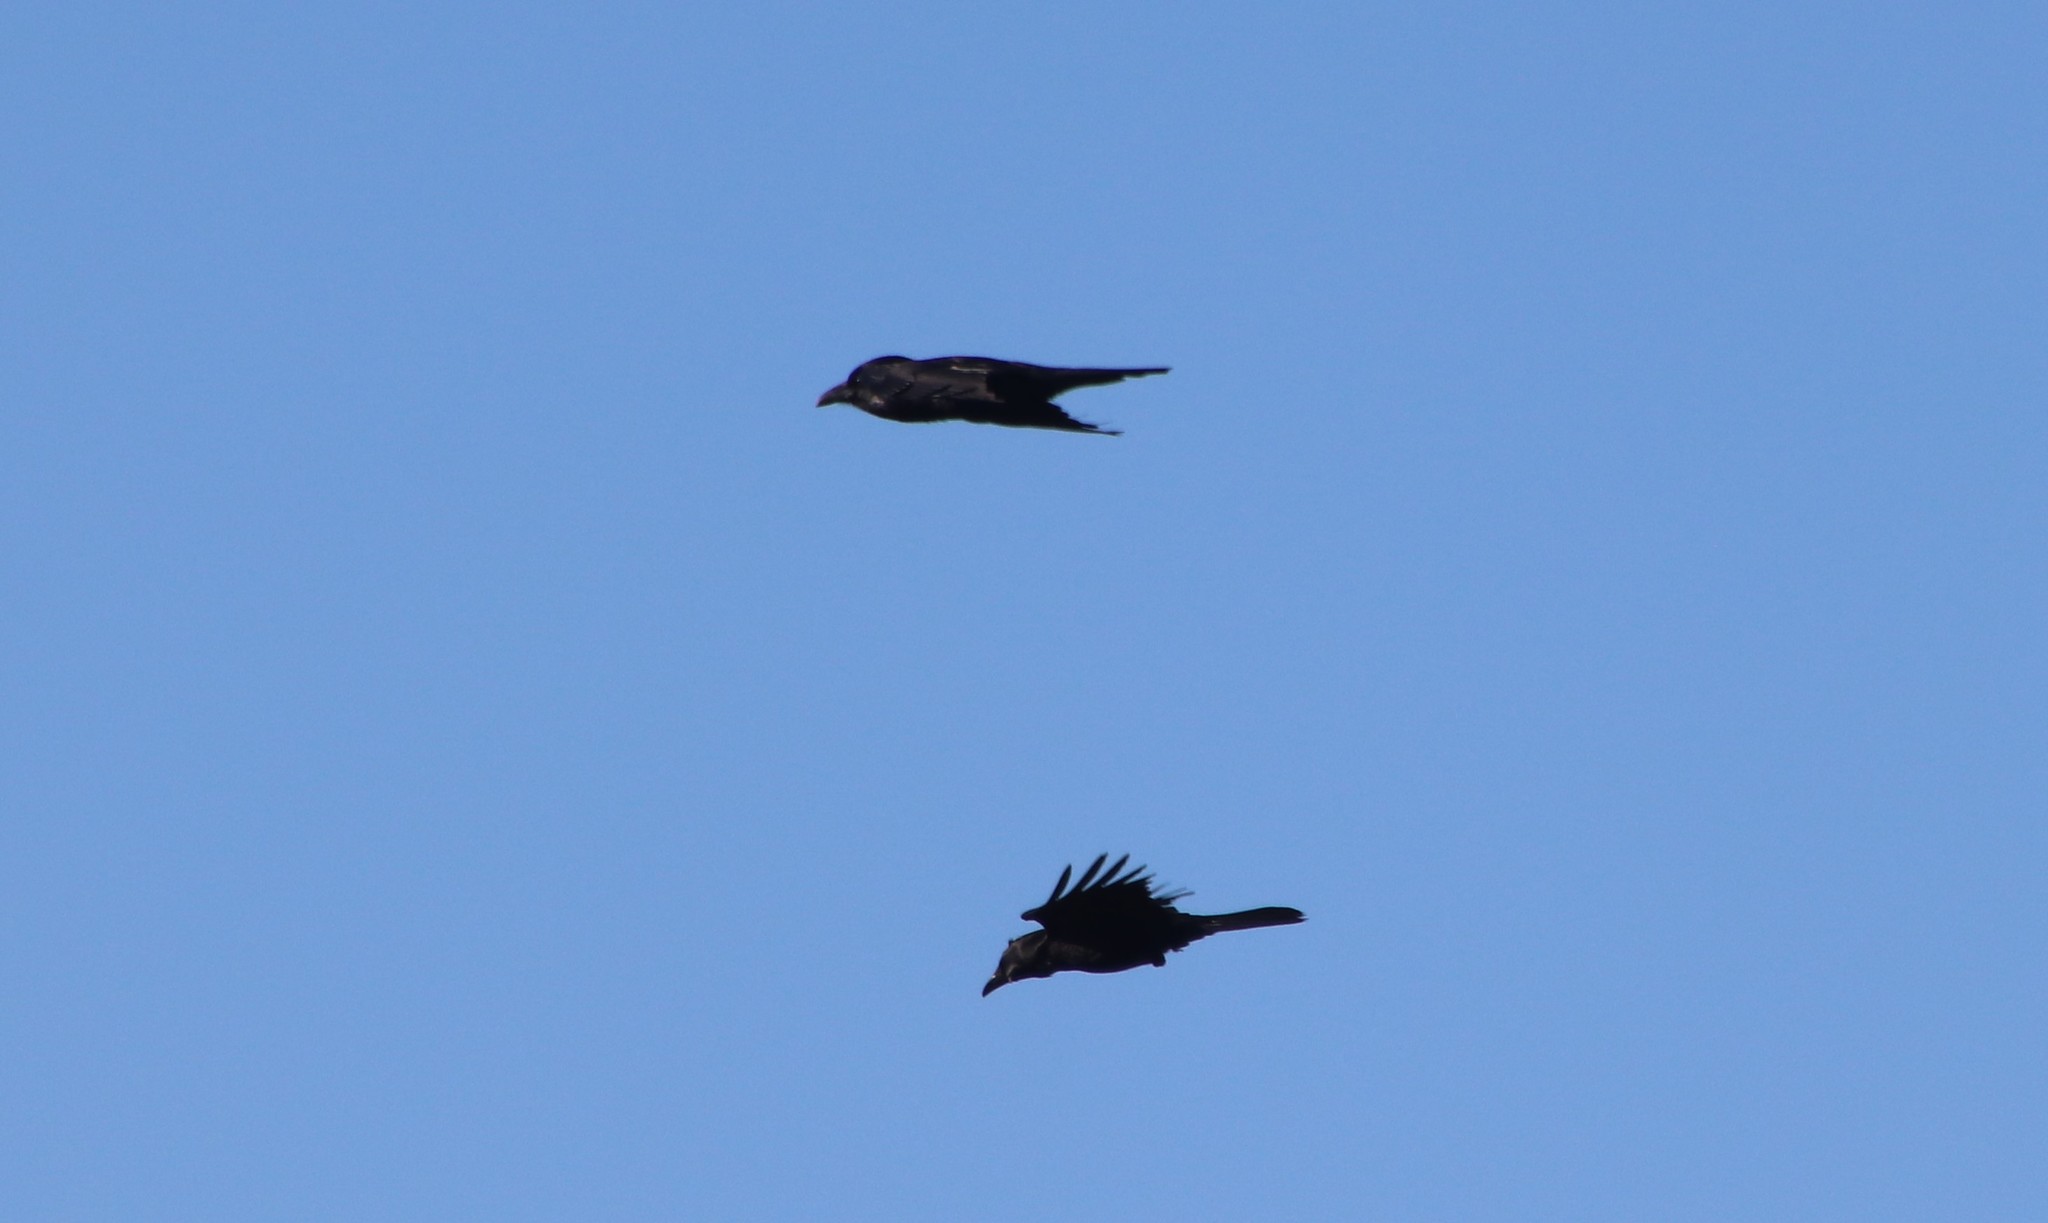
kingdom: Animalia
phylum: Chordata
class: Aves
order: Passeriformes
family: Corvidae
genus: Corvus
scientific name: Corvus corax
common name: Common raven
